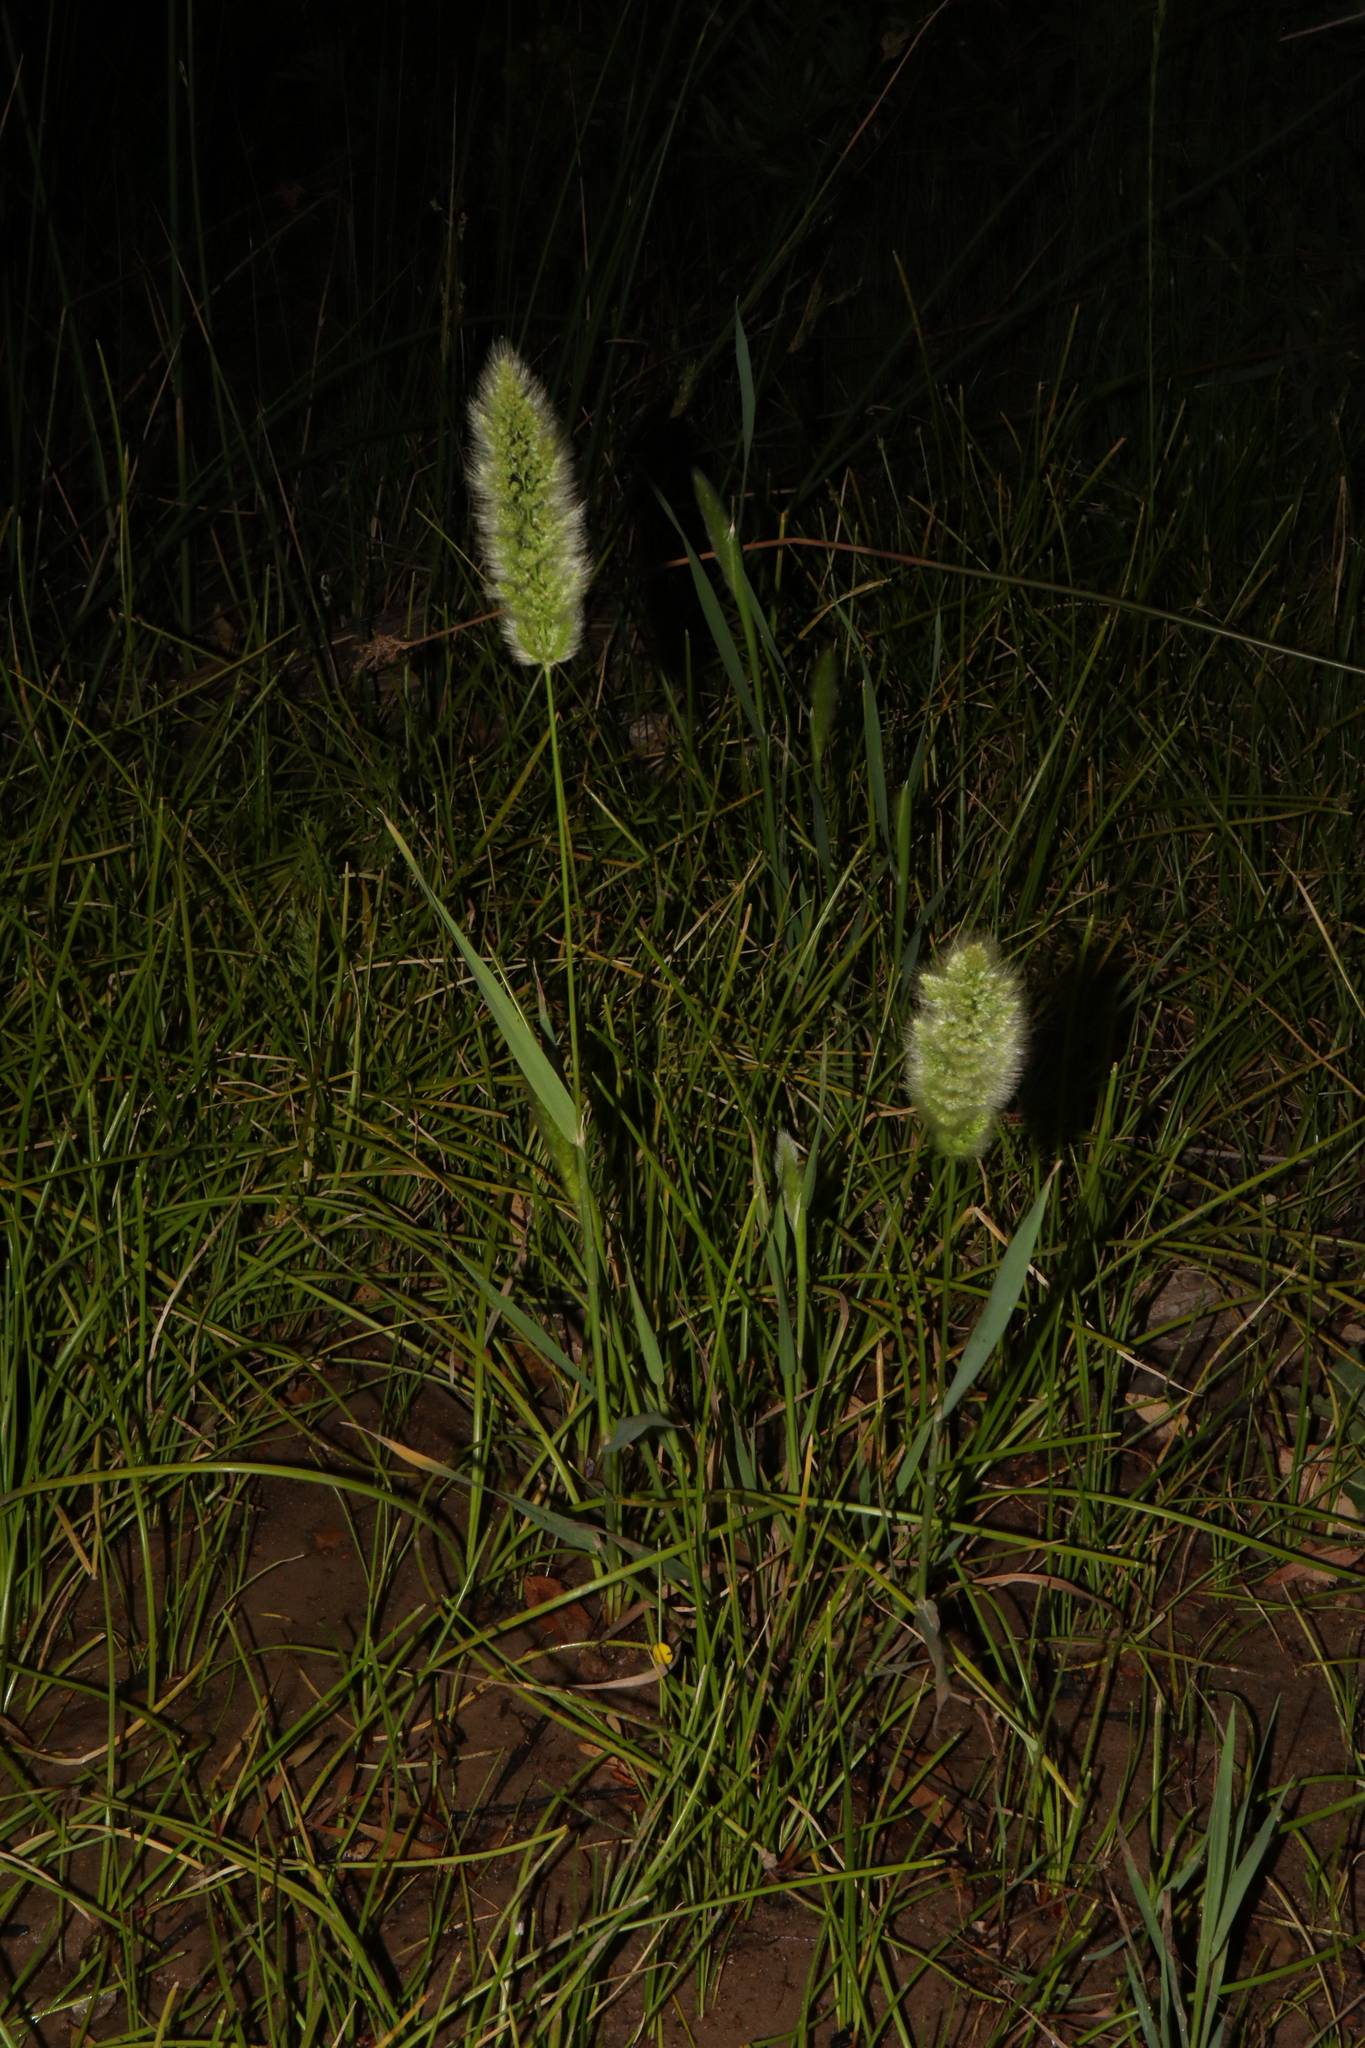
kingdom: Plantae
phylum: Tracheophyta
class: Liliopsida
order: Poales
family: Poaceae
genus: Polypogon
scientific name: Polypogon monspeliensis
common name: Annual rabbitsfoot grass
